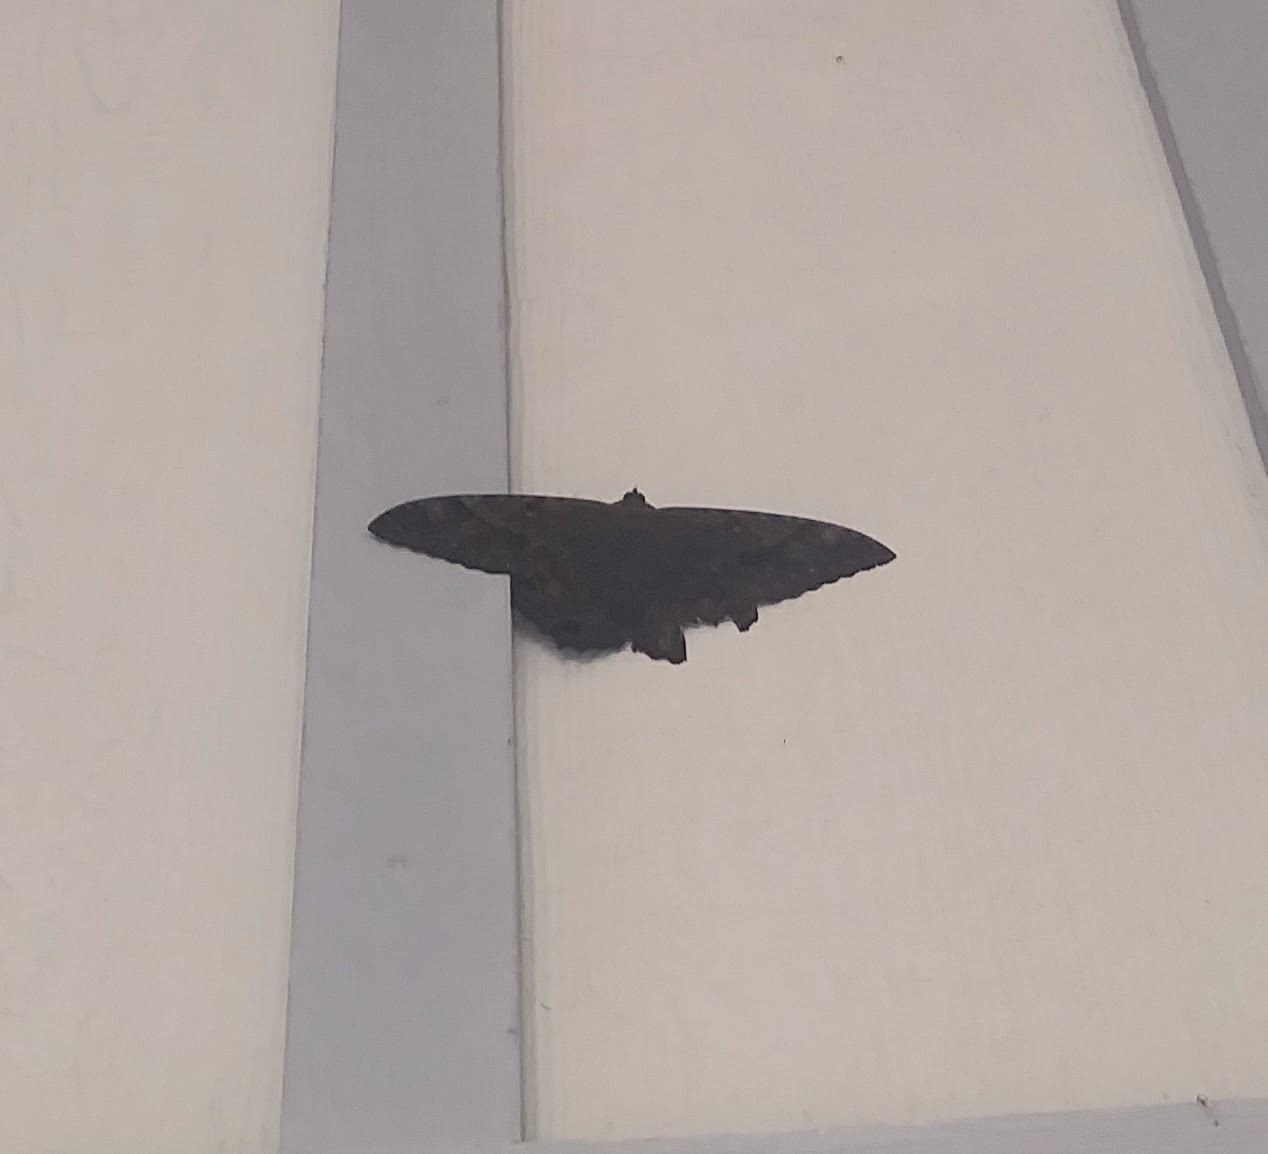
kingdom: Animalia
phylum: Arthropoda
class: Insecta
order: Lepidoptera
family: Erebidae
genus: Ascalapha
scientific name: Ascalapha odorata
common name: Black witch
